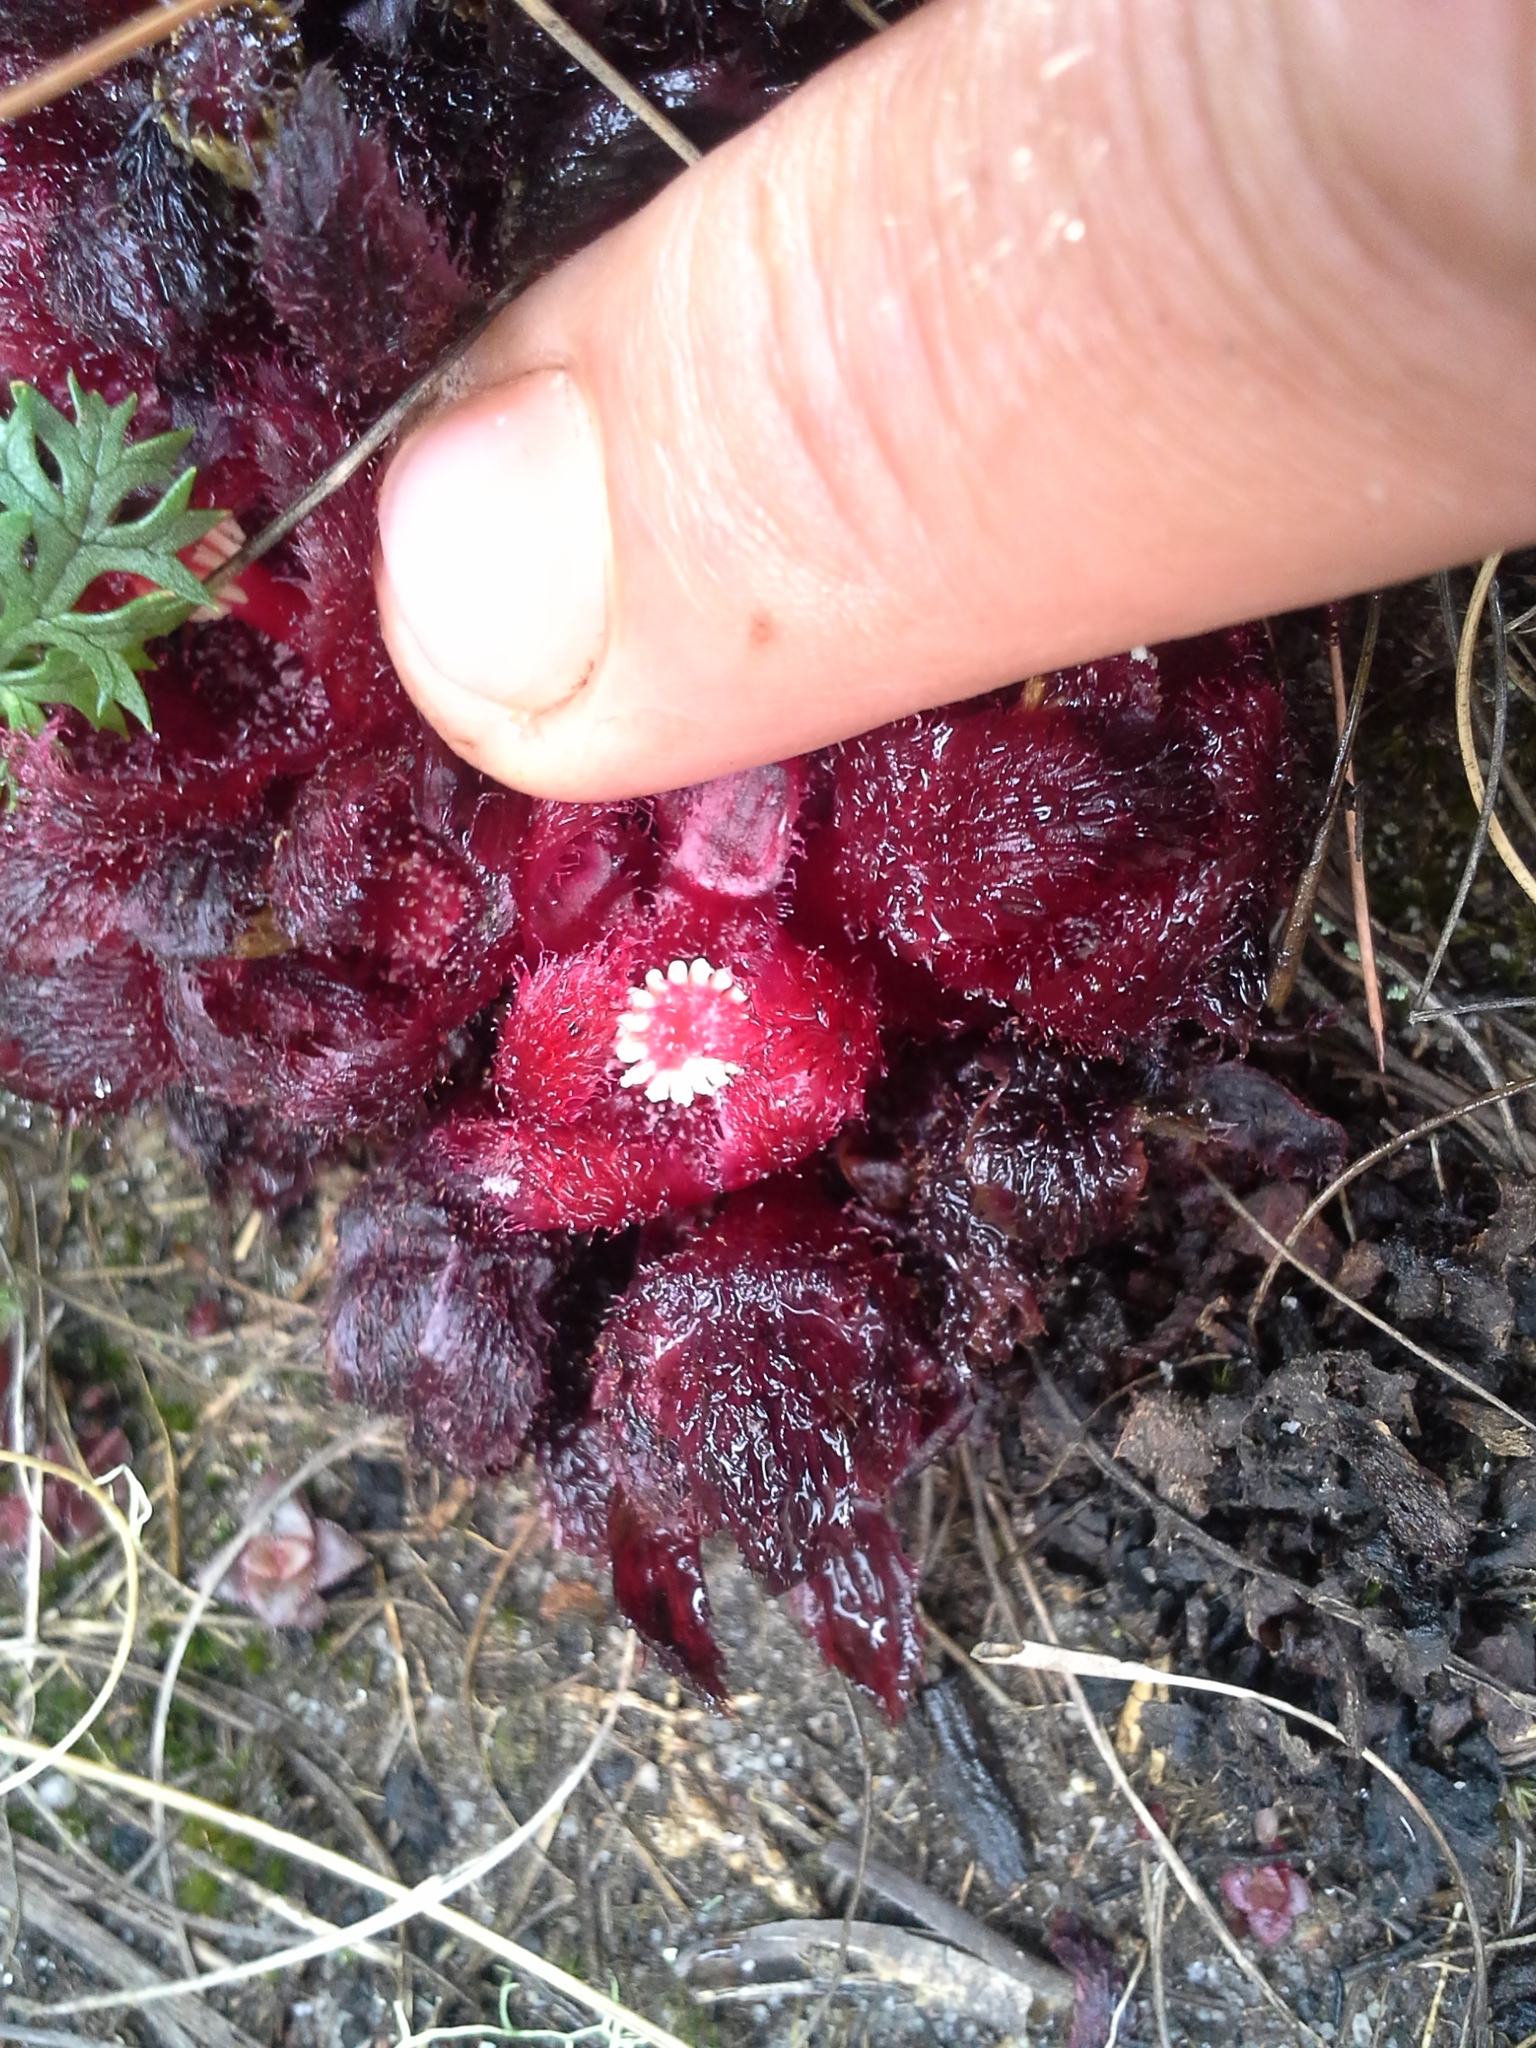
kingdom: Plantae
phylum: Tracheophyta
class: Magnoliopsida
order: Malvales
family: Cytinaceae
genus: Cytinus
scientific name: Cytinus visseri
